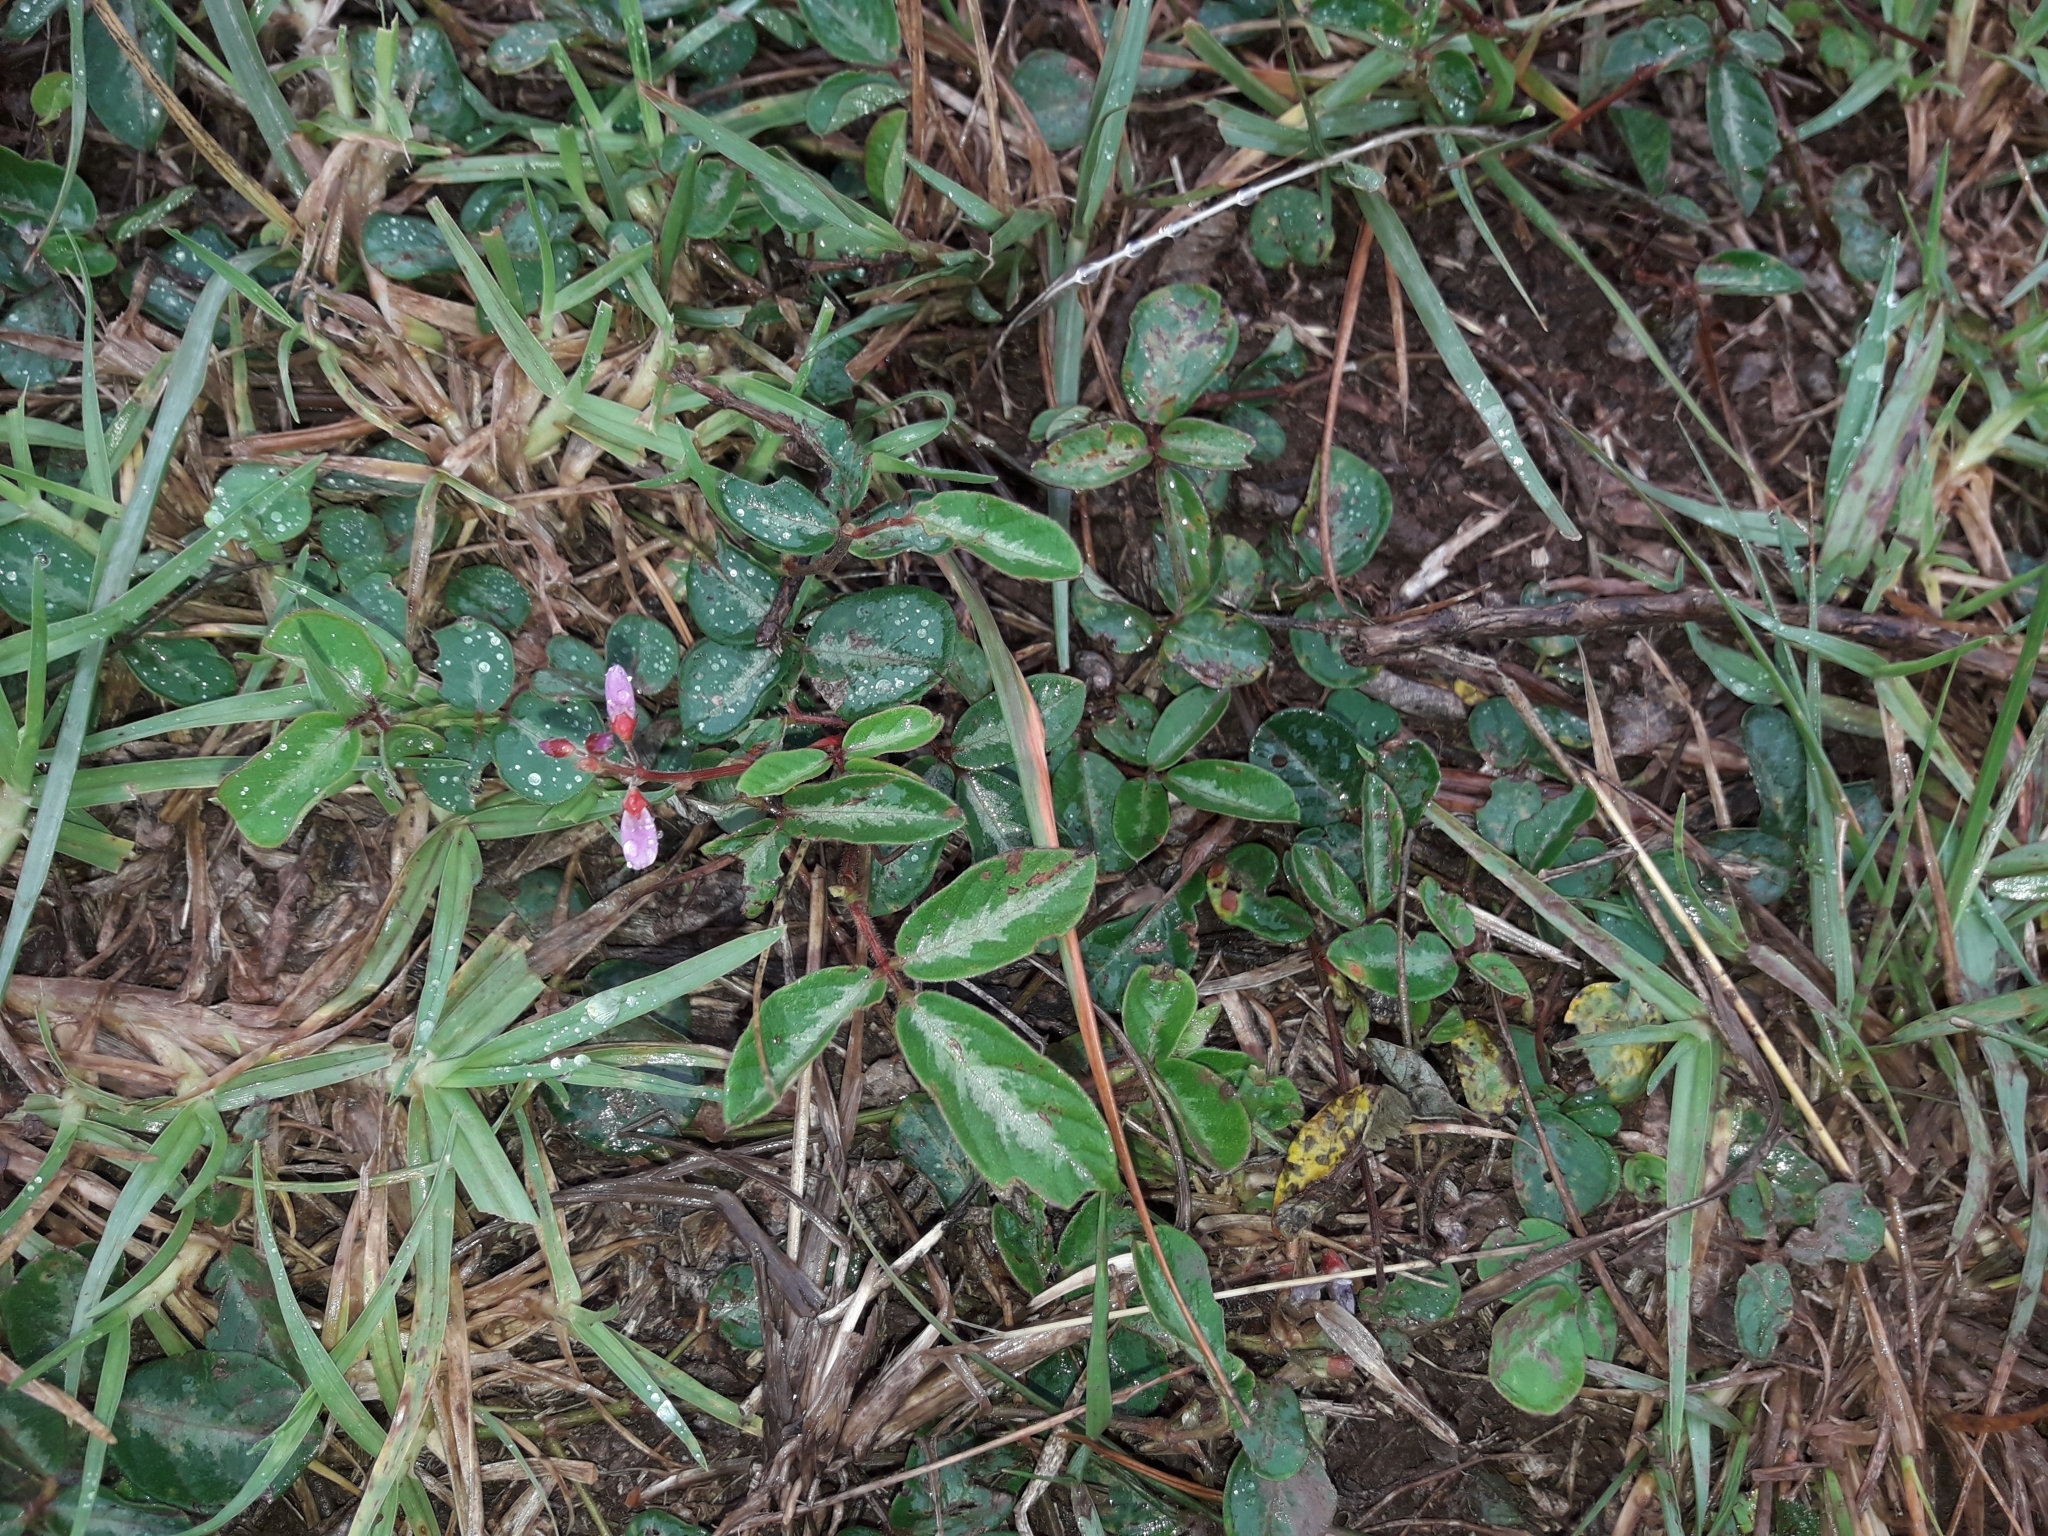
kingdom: Plantae
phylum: Tracheophyta
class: Magnoliopsida
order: Fabales
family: Fabaceae
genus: Desmodium
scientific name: Desmodium incanum
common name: Tickclover
